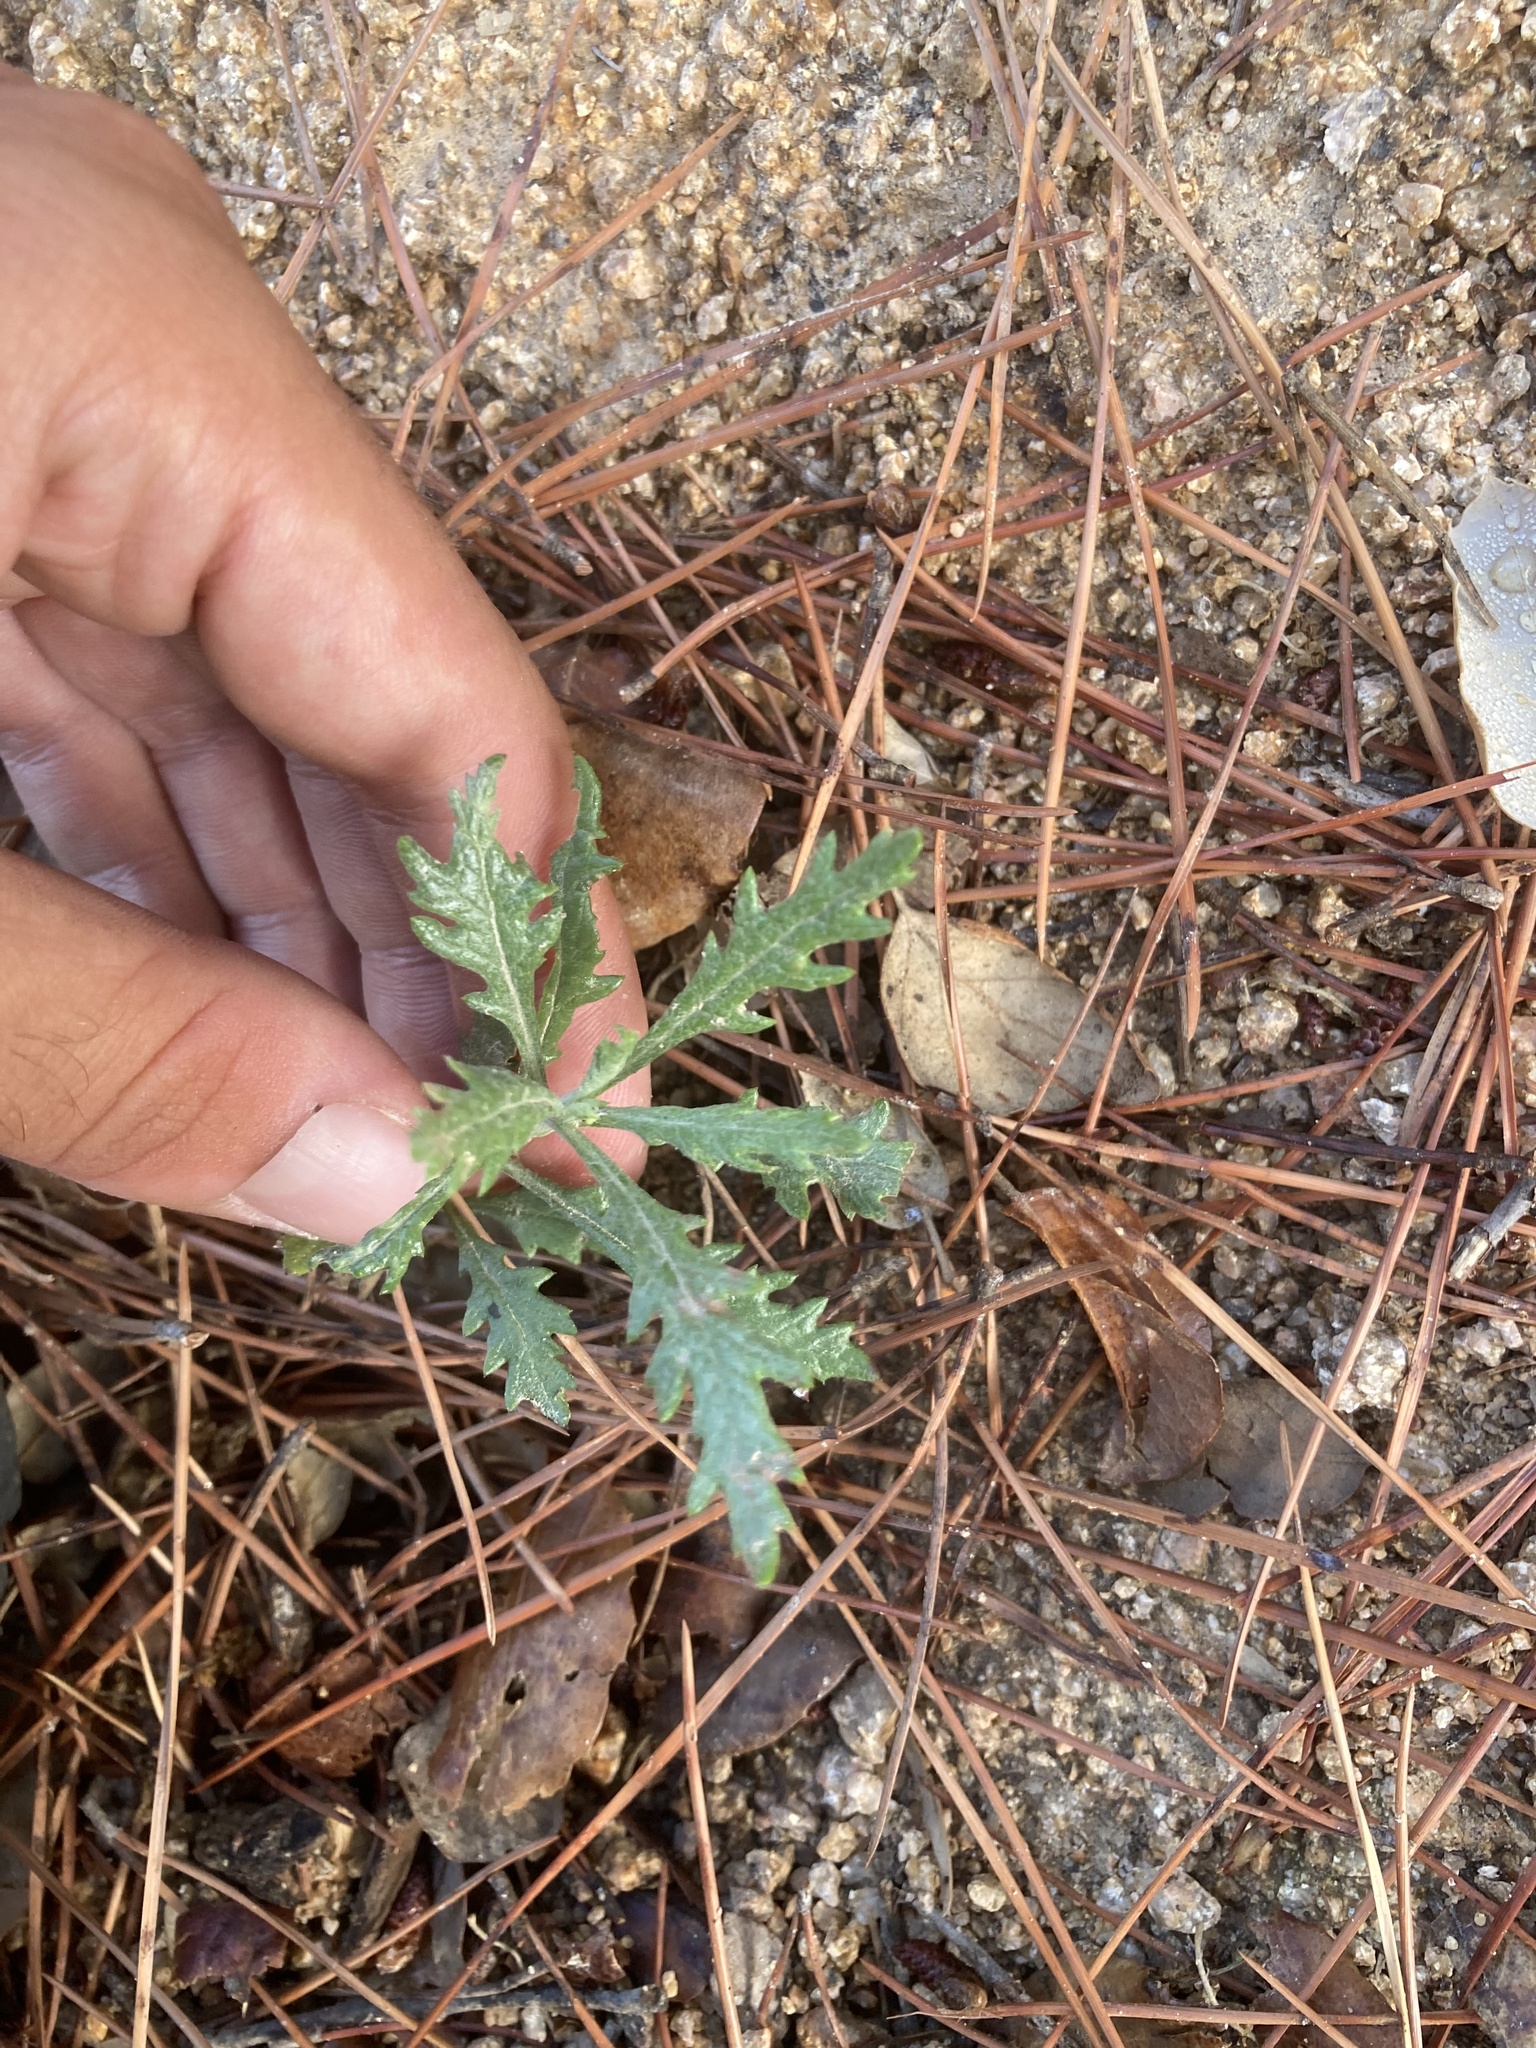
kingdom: Plantae
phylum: Tracheophyta
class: Magnoliopsida
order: Asterales
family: Asteraceae
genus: Senecio
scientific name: Senecio pterophorus
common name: Shoddy ragwort
